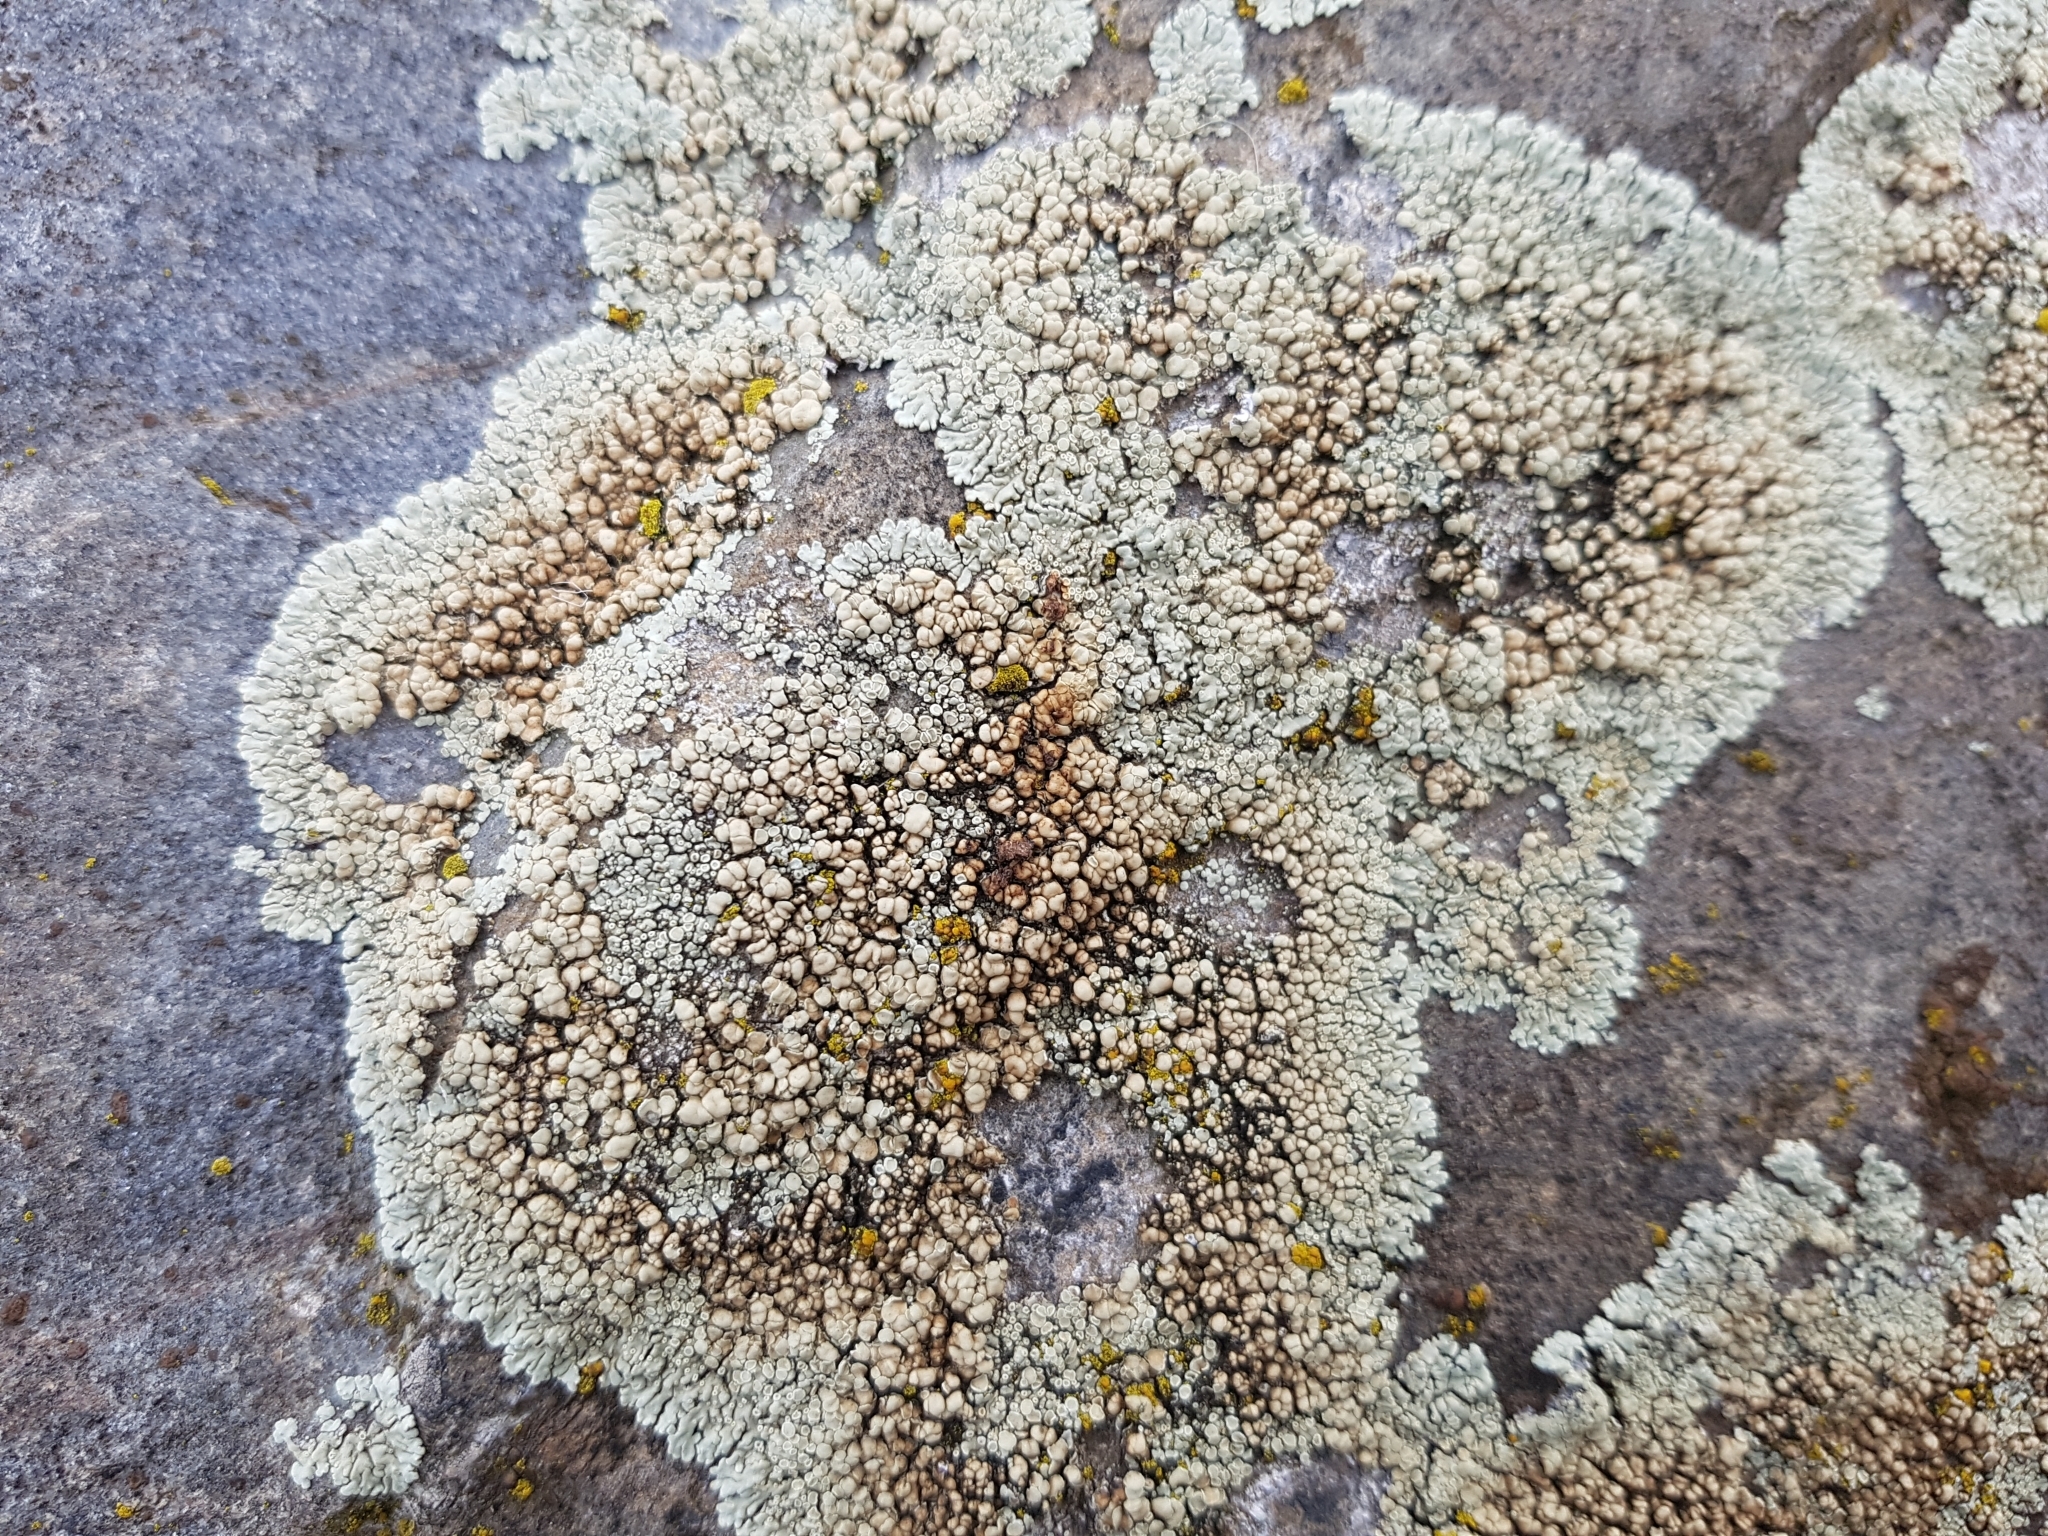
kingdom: Fungi
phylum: Ascomycota
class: Lecanoromycetes
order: Lecanorales
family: Lecanoraceae
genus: Protoparmeliopsis
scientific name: Protoparmeliopsis muralis
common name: Stonewall rim lichen
